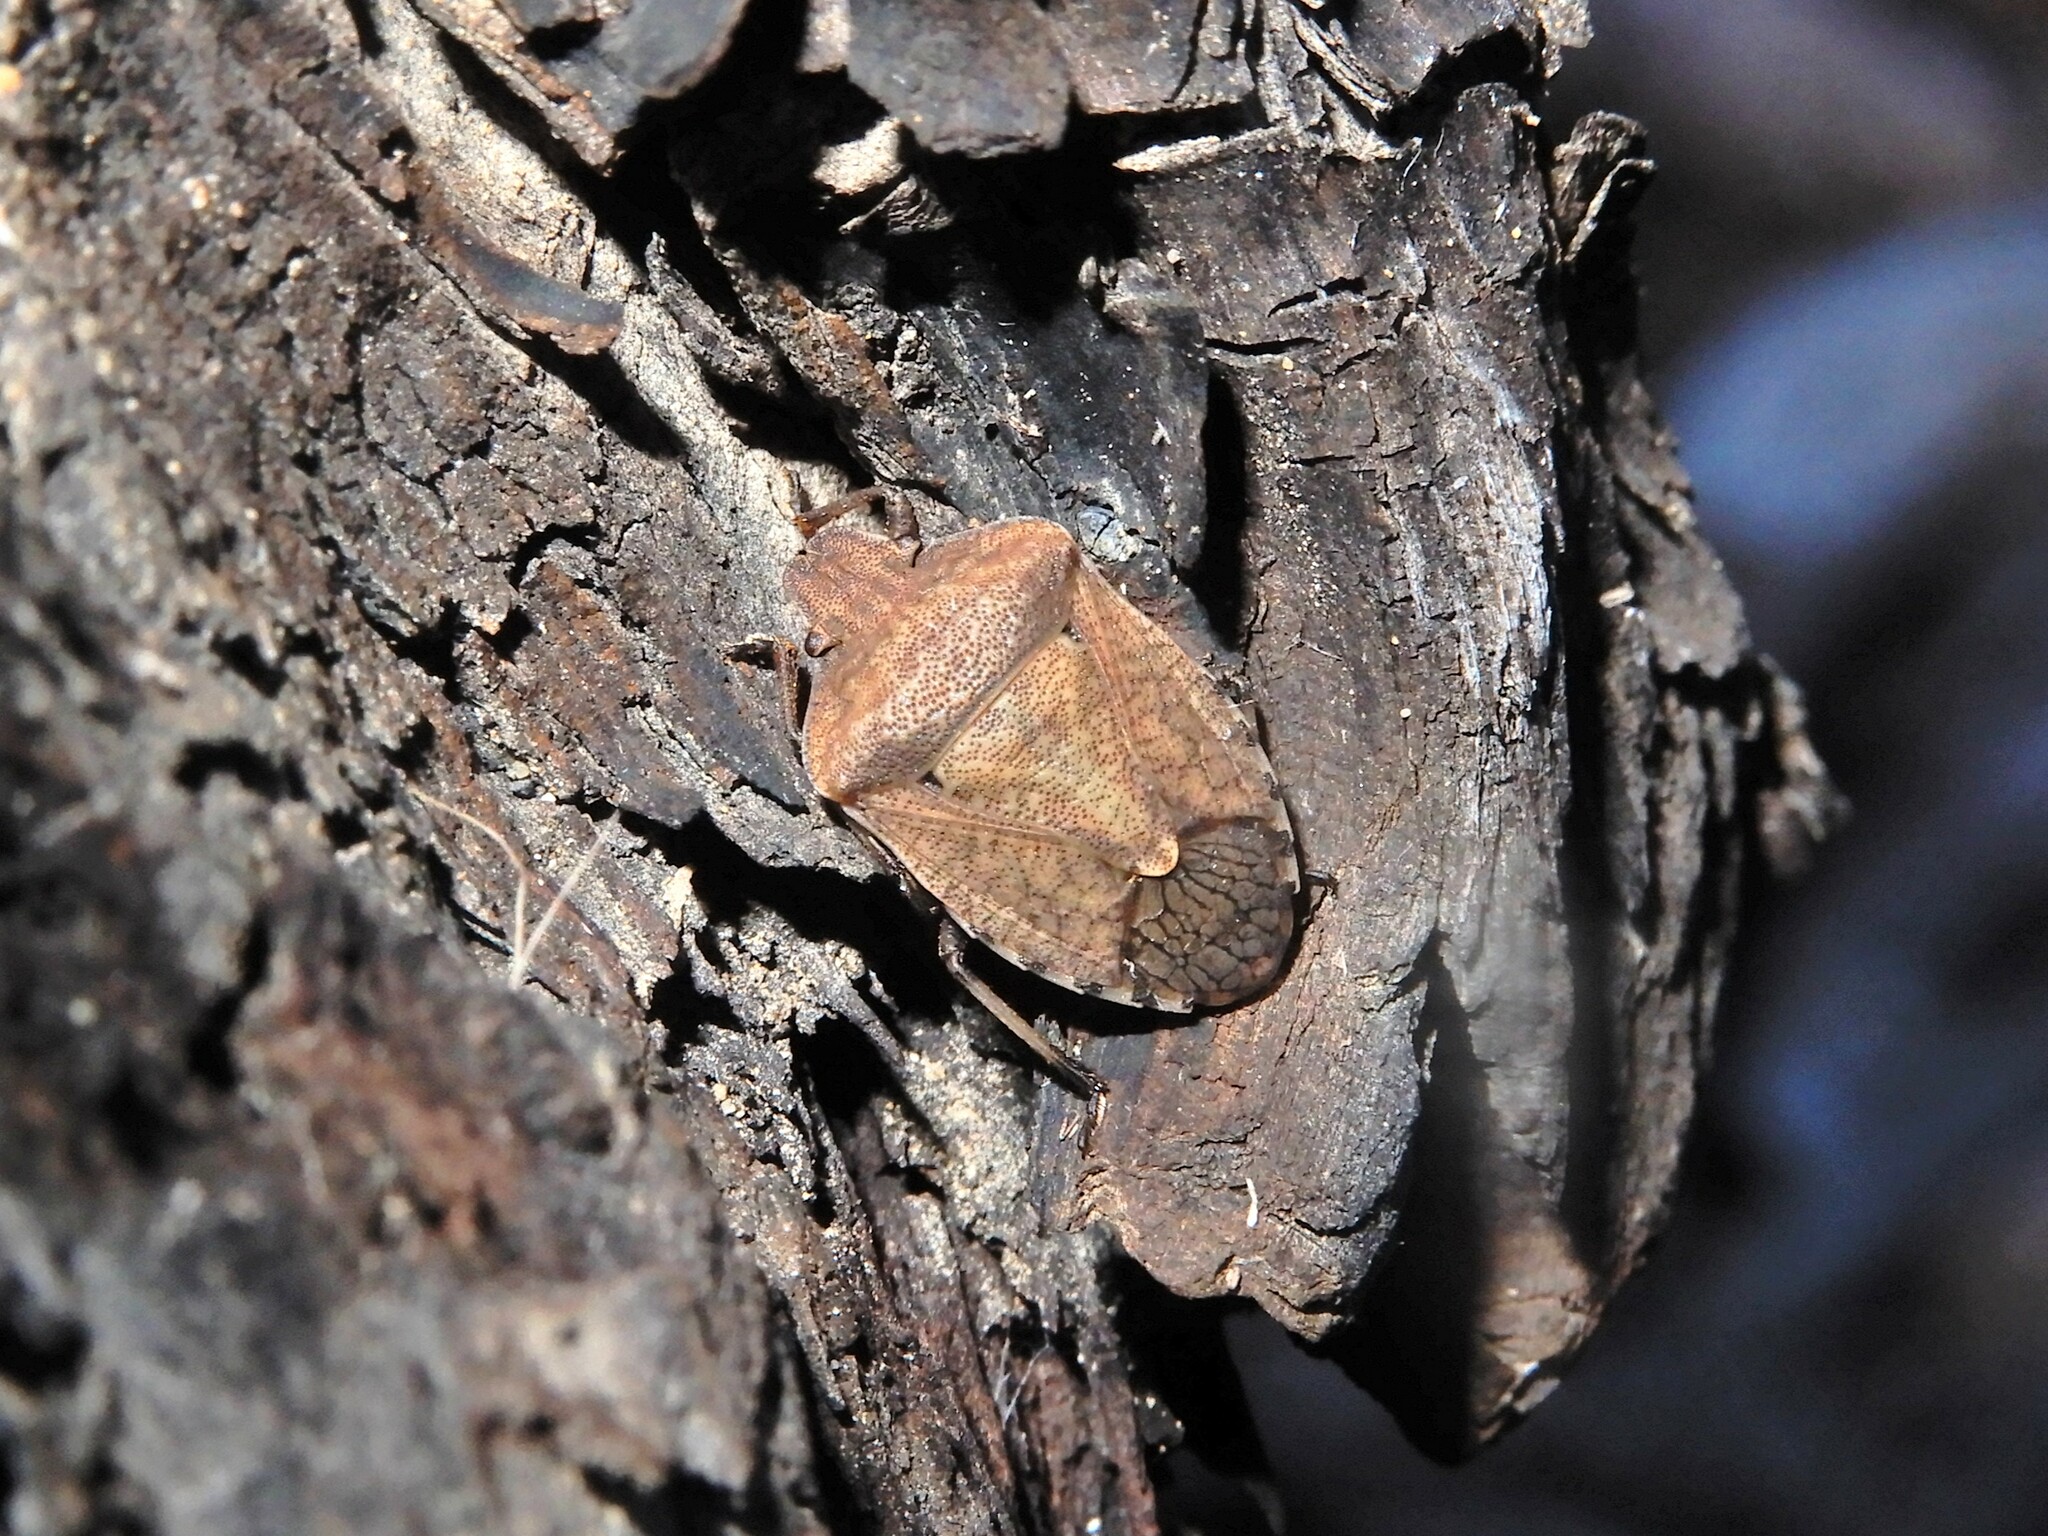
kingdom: Animalia
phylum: Arthropoda
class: Insecta
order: Hemiptera
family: Pentatomidae
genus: Dictyotus
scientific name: Dictyotus caenosus
